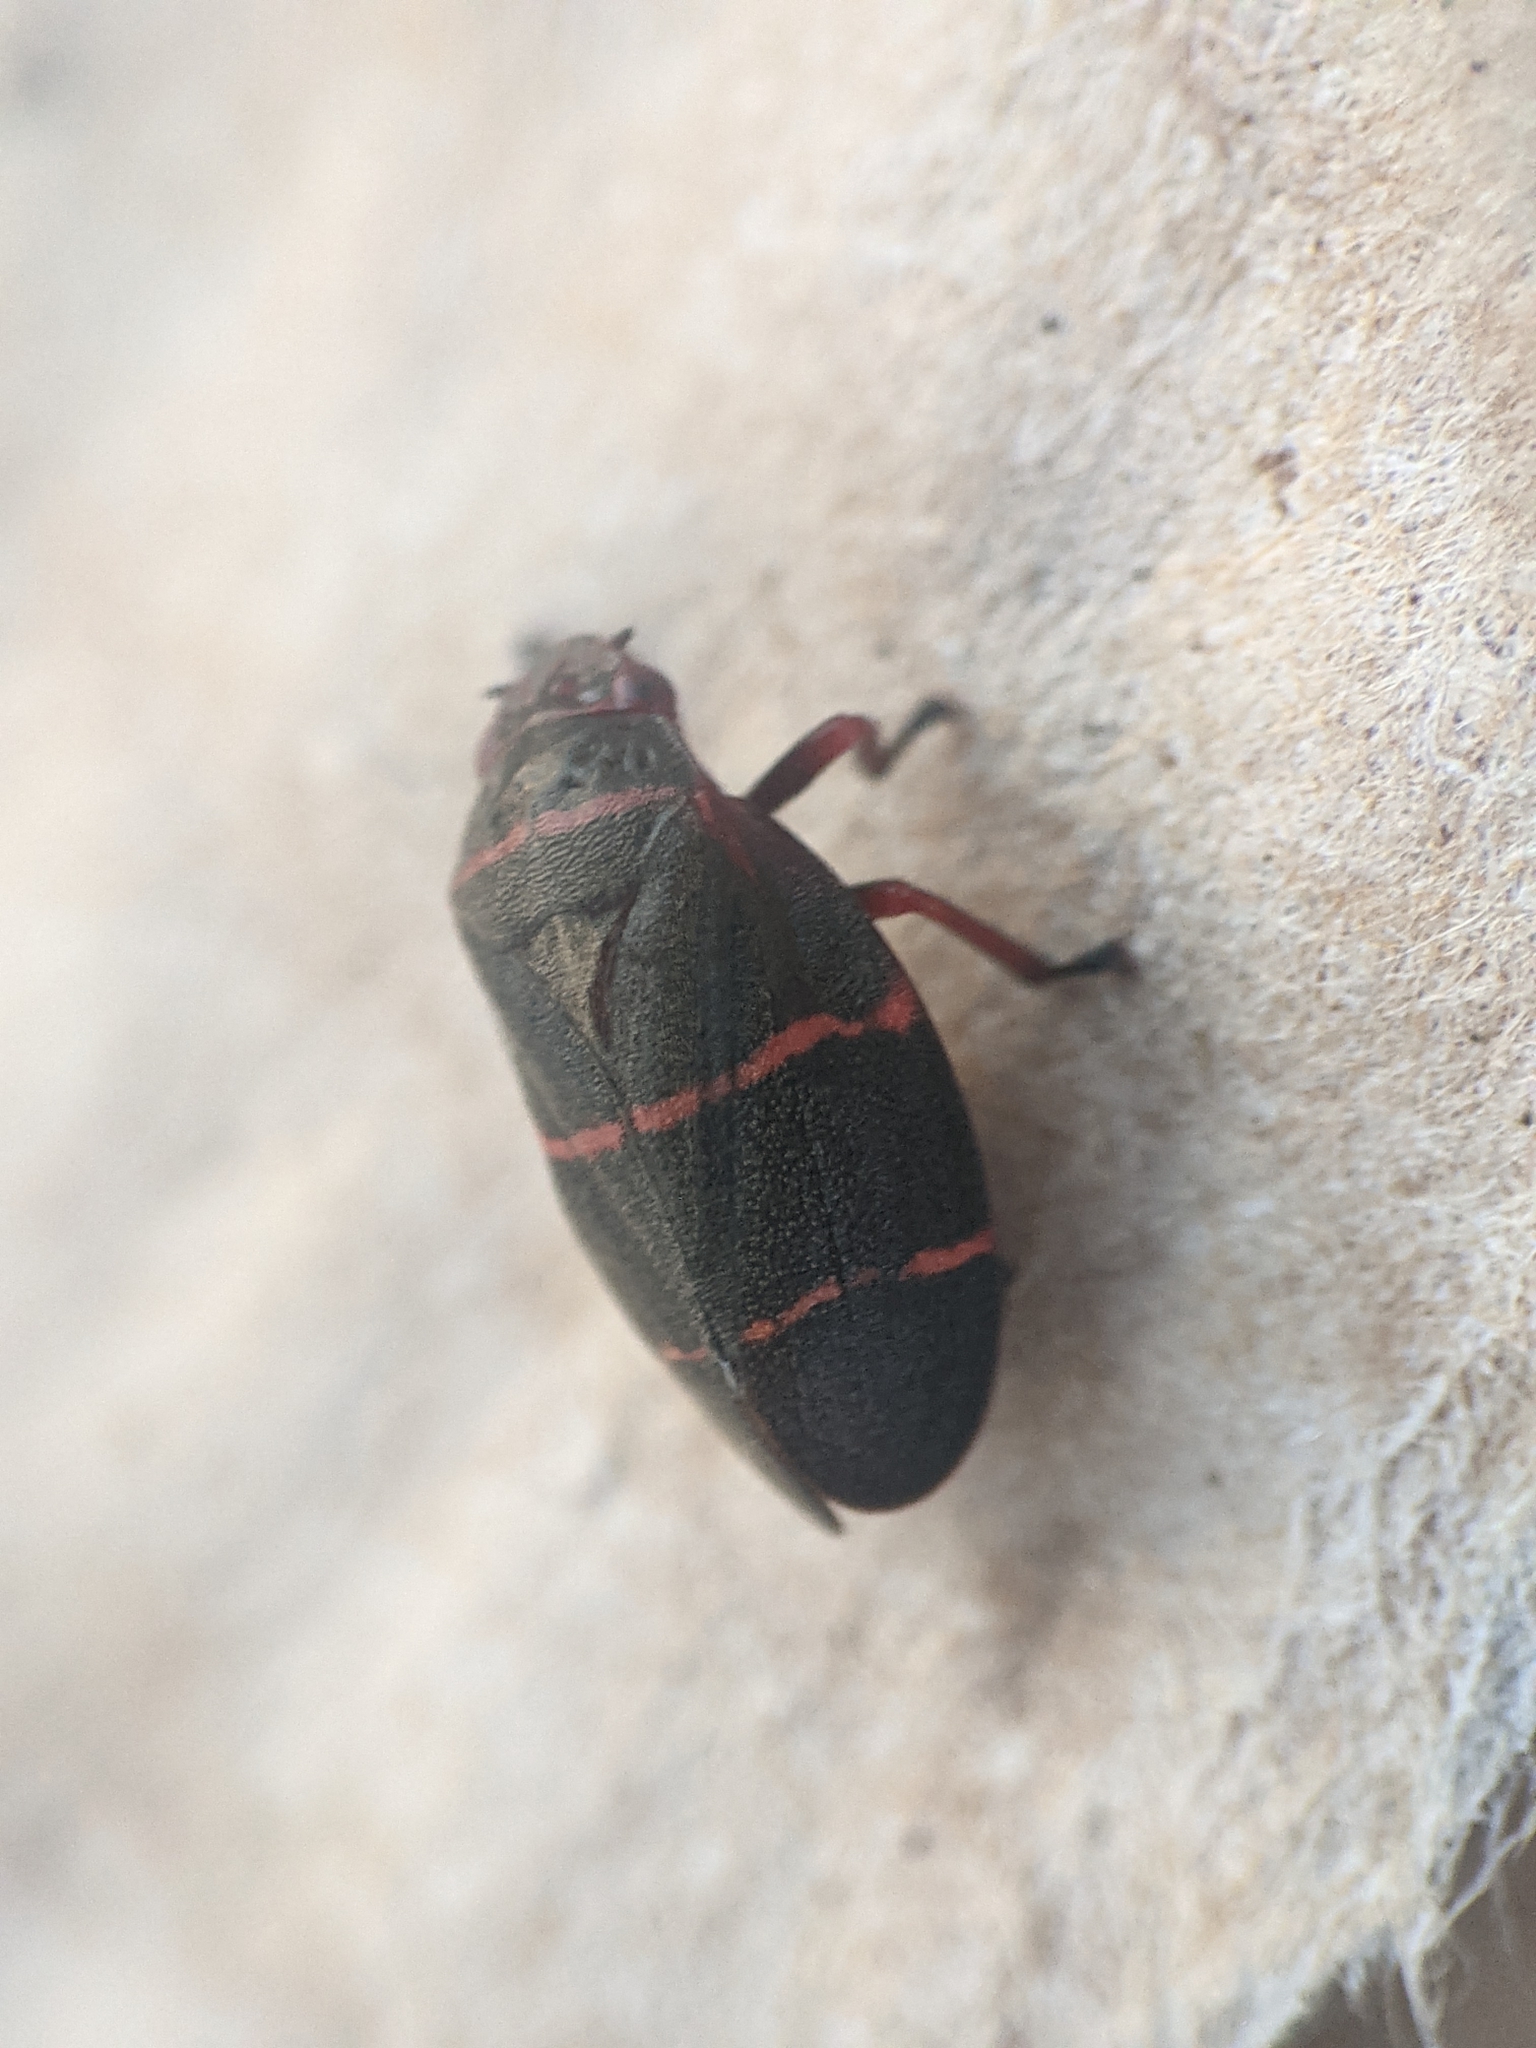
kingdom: Animalia
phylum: Arthropoda
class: Insecta
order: Hemiptera
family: Cercopidae
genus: Prosapia
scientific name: Prosapia bicincta
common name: Twolined spittlebug
